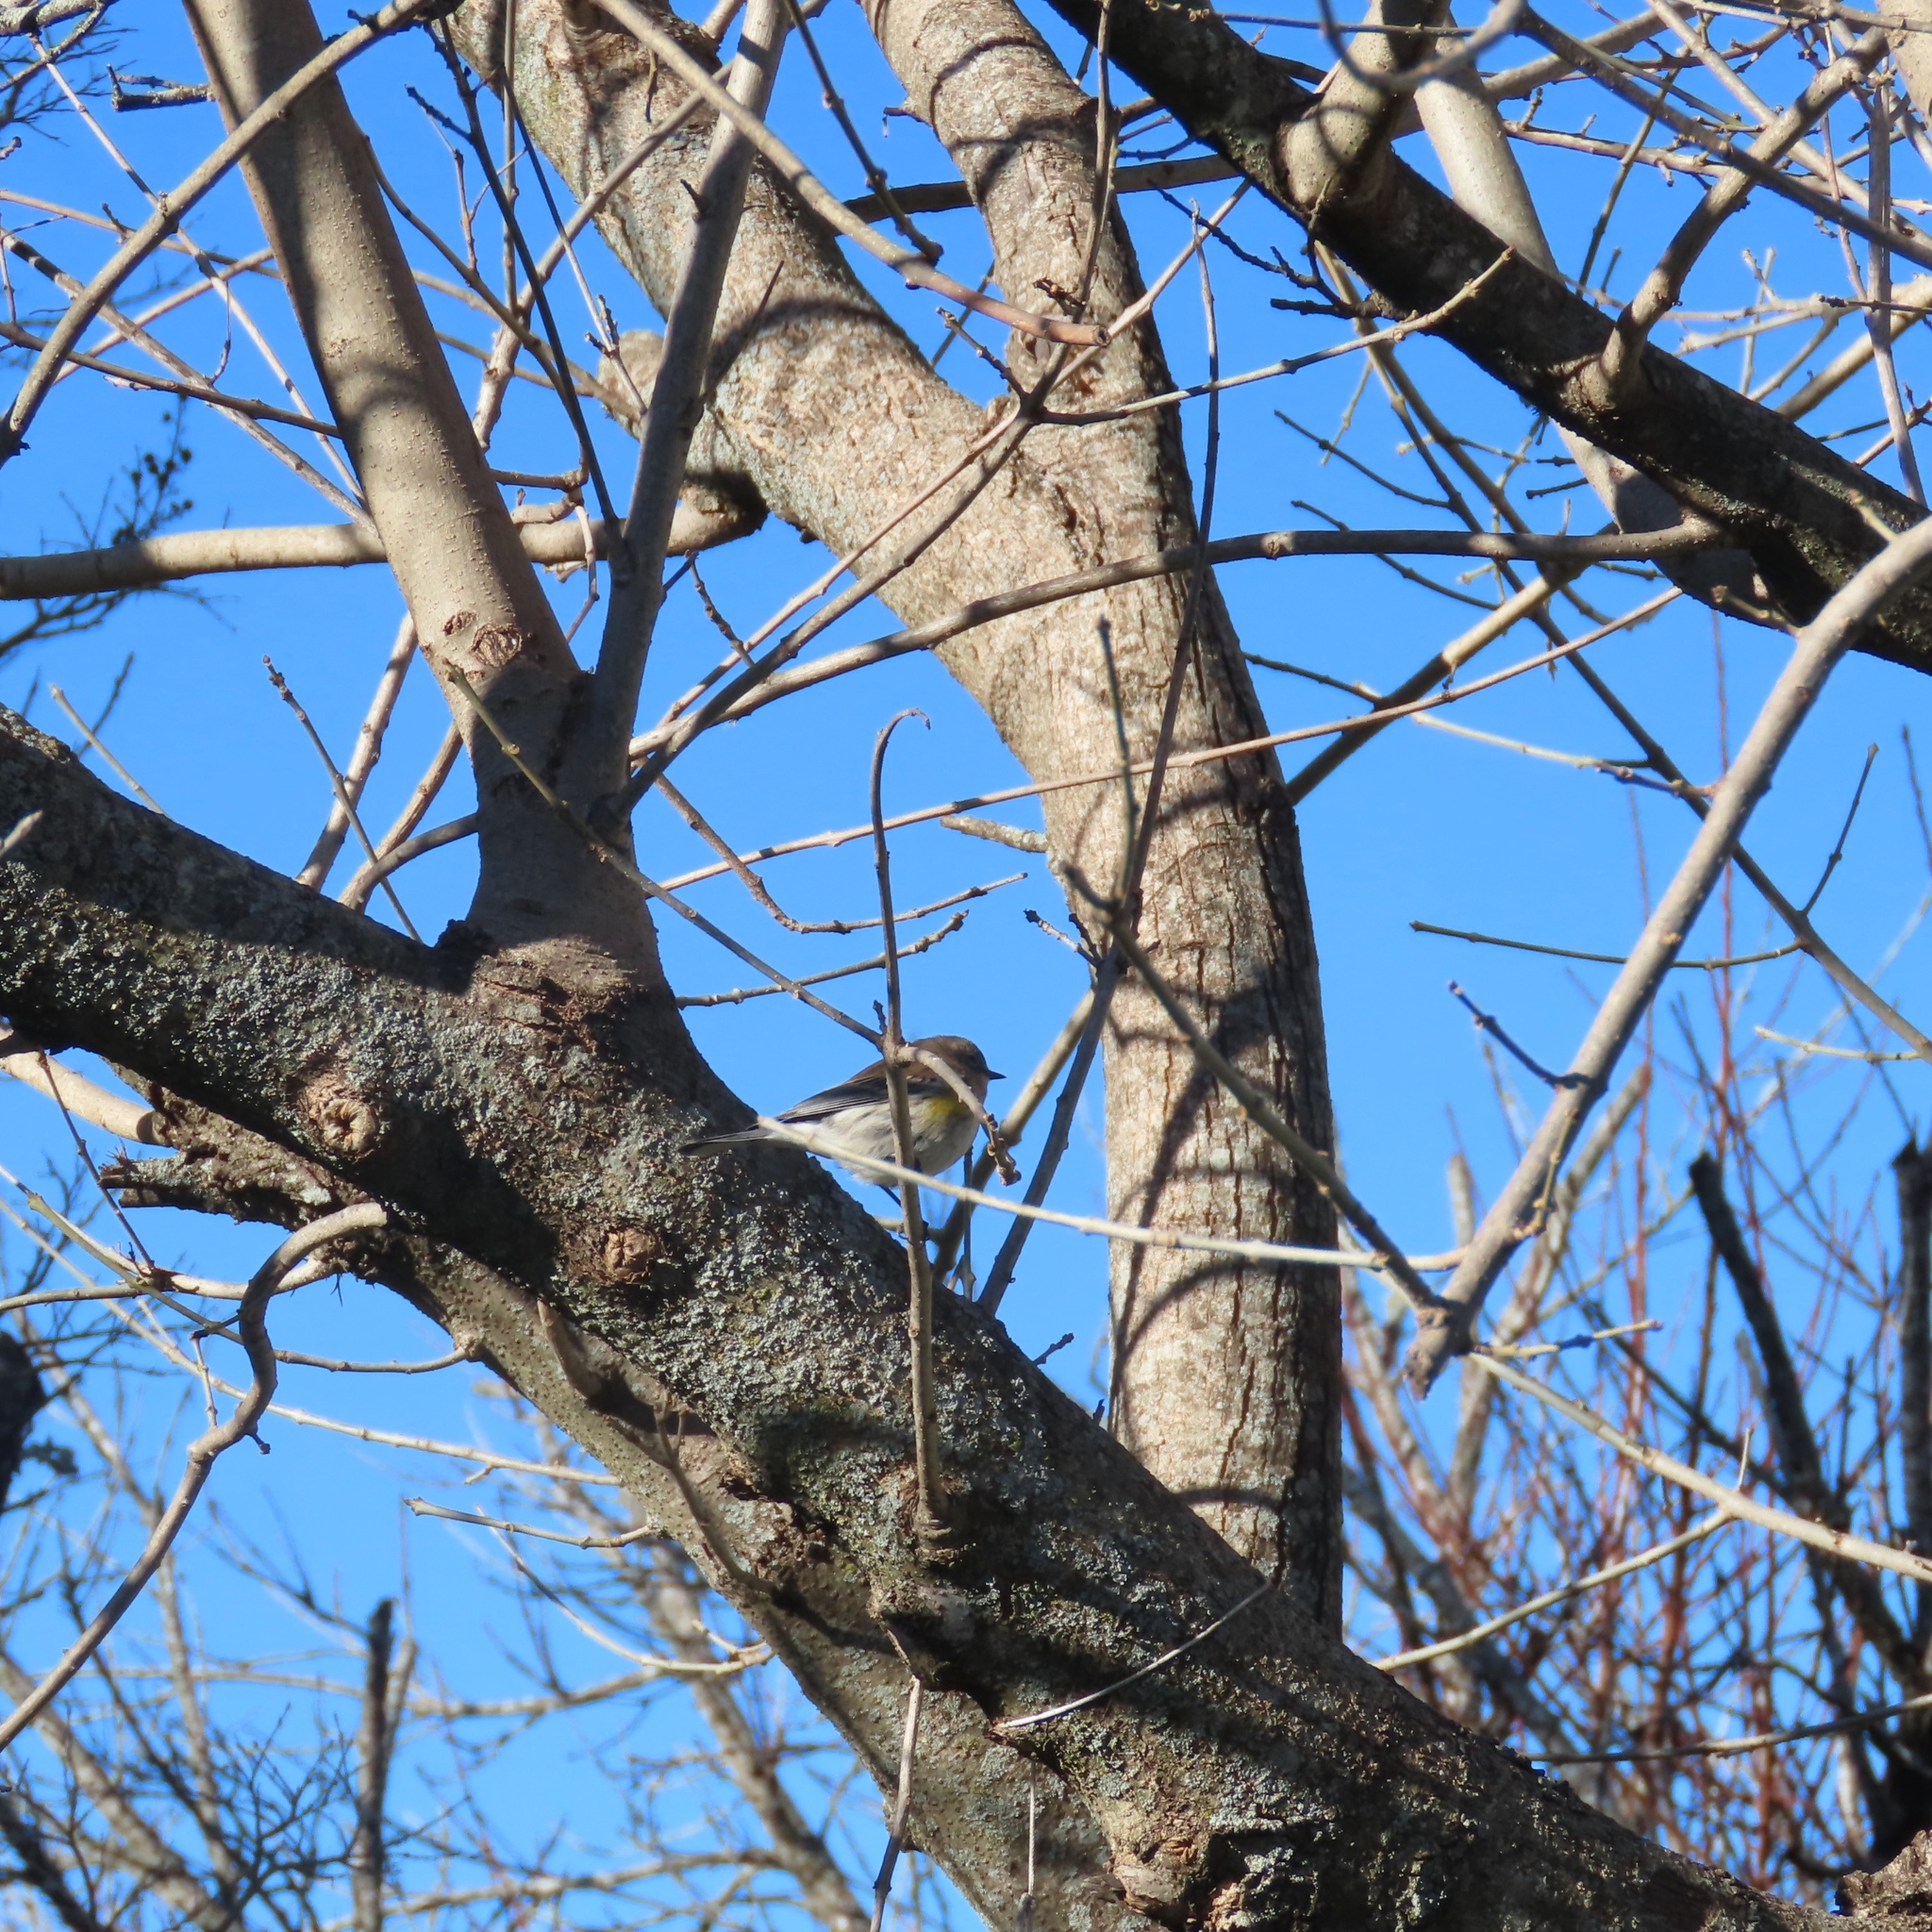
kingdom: Animalia
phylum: Chordata
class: Aves
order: Passeriformes
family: Parulidae
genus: Setophaga
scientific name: Setophaga coronata
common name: Myrtle warbler
